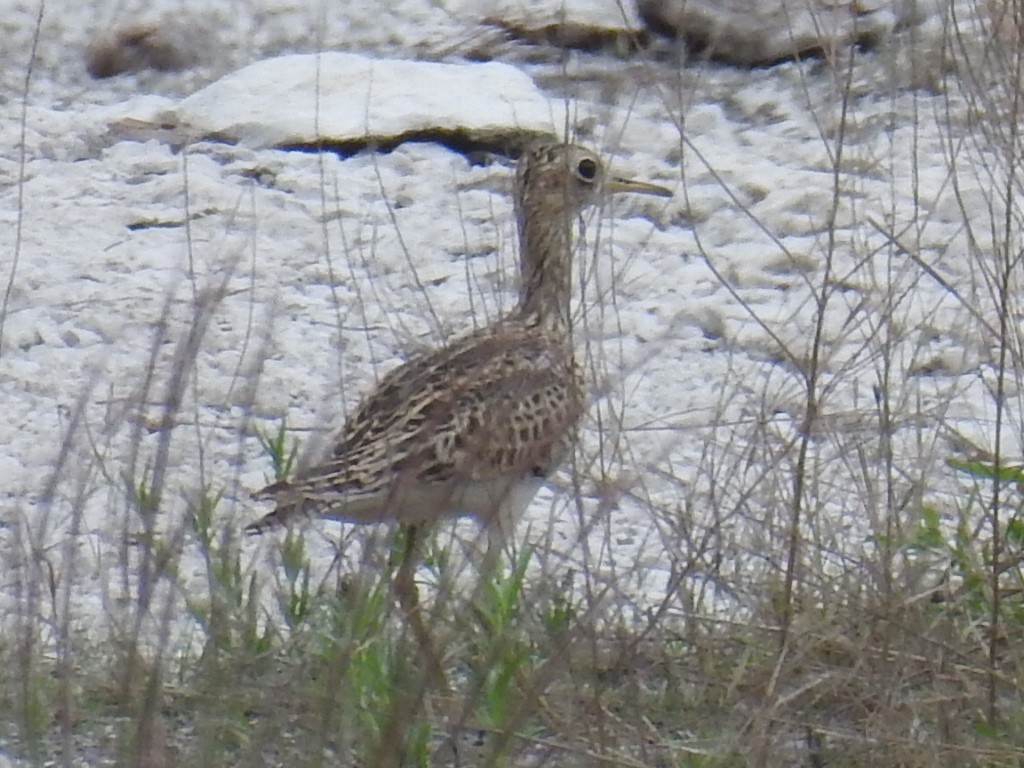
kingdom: Animalia
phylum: Chordata
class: Aves
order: Charadriiformes
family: Scolopacidae
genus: Bartramia
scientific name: Bartramia longicauda
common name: Upland sandpiper
